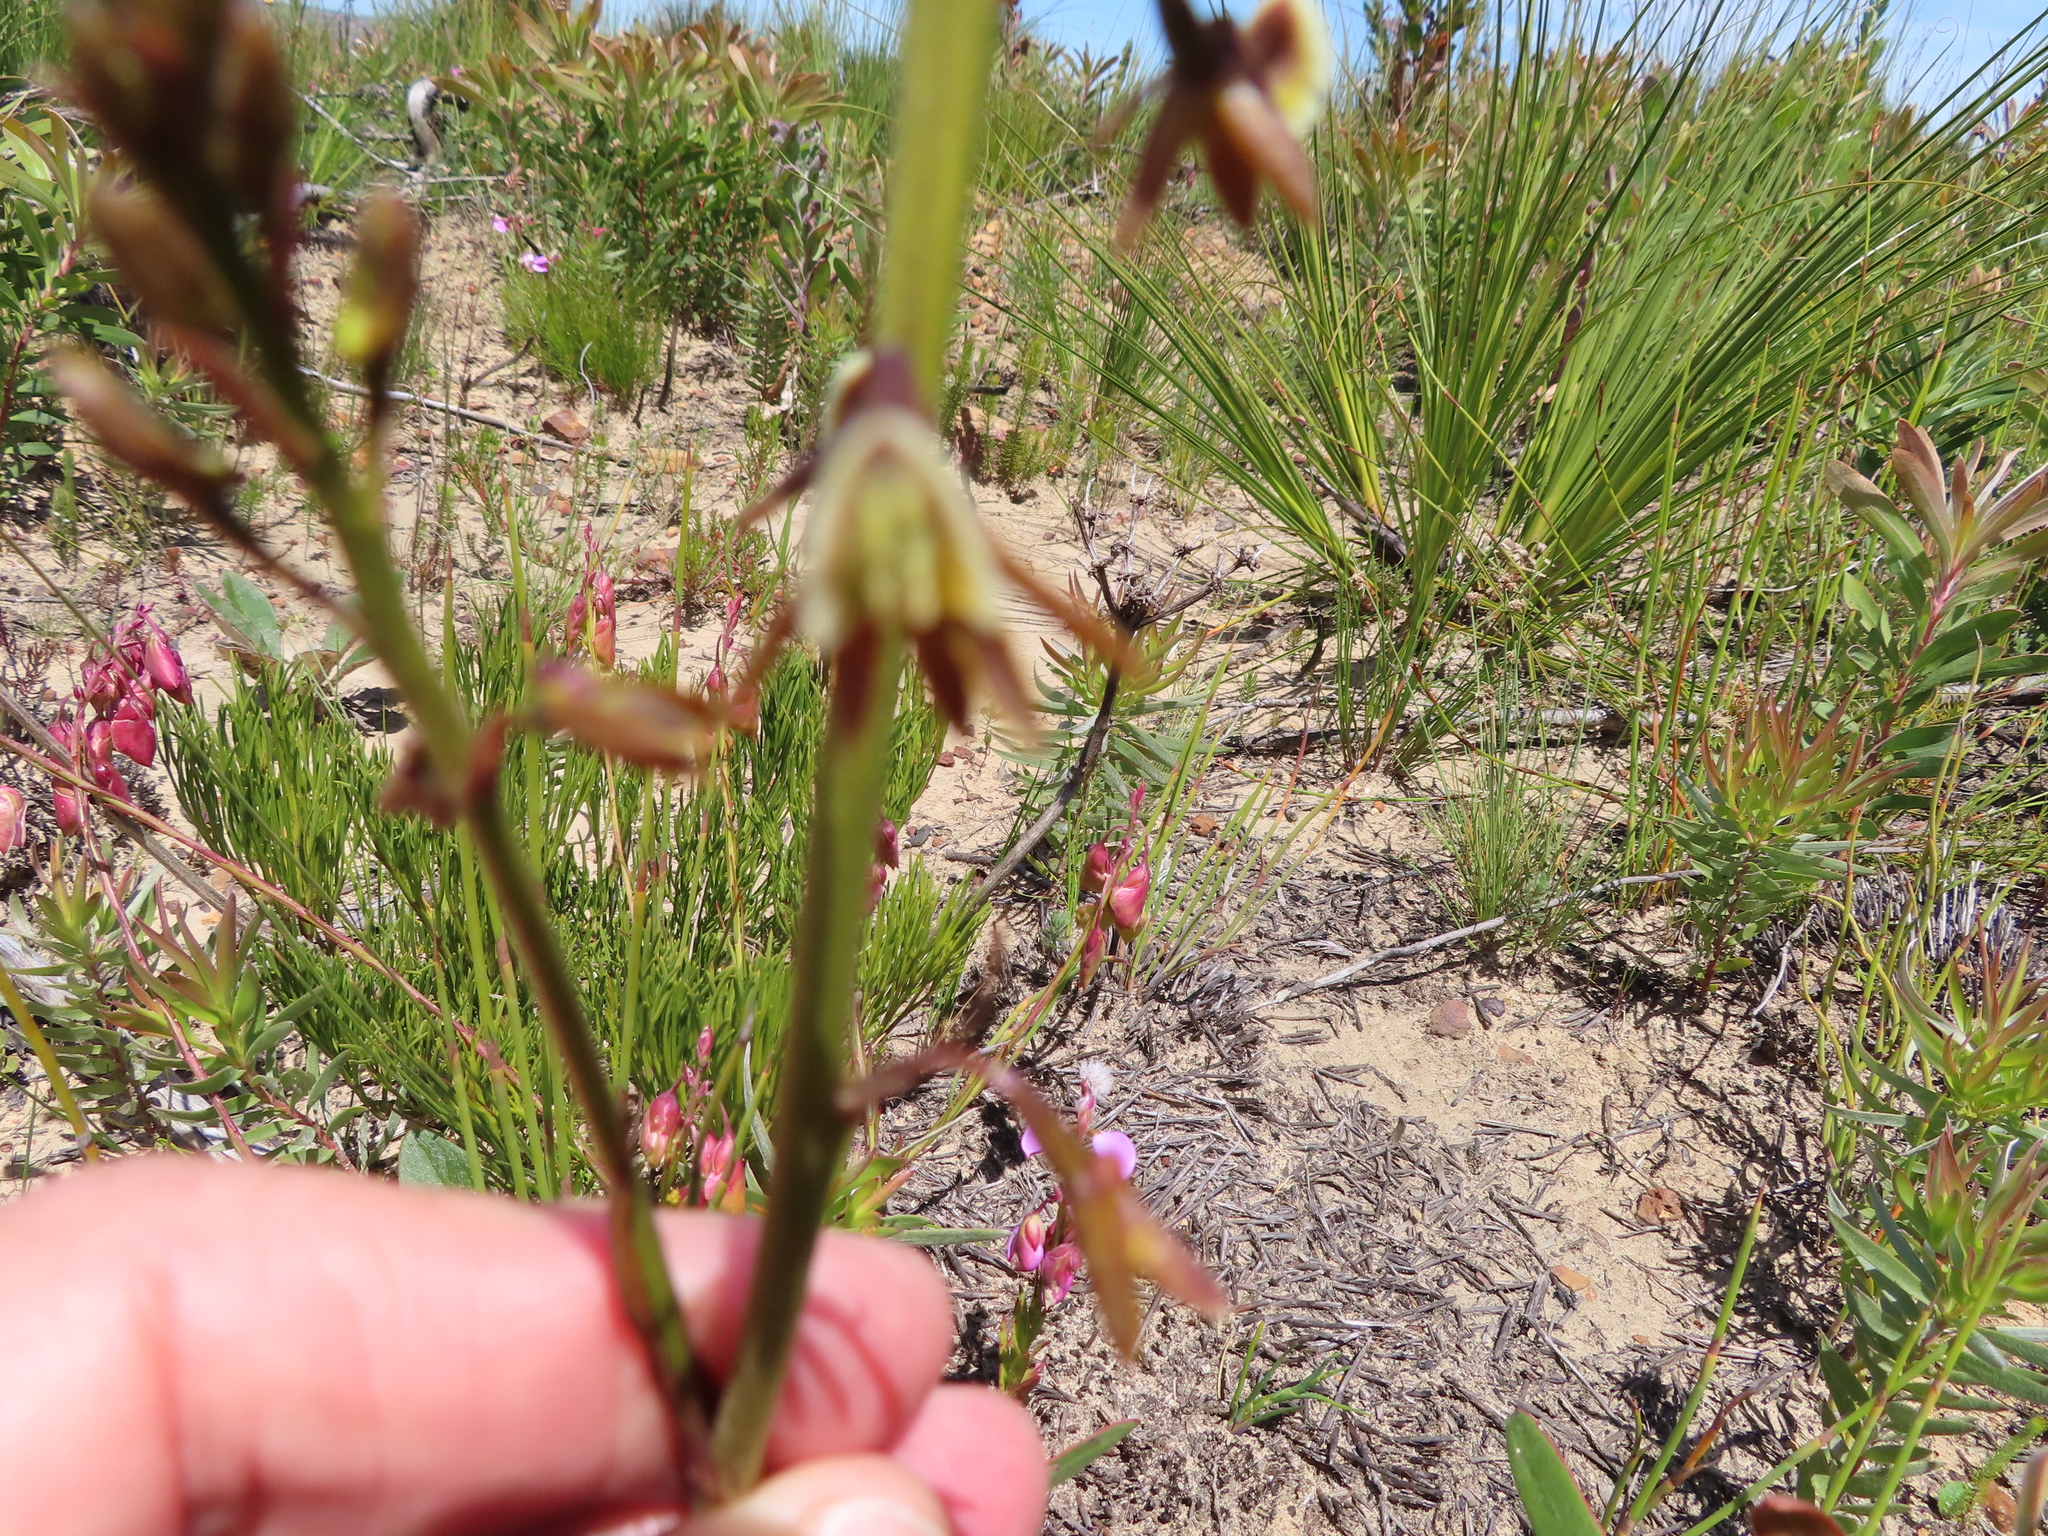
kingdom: Plantae
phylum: Tracheophyta
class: Liliopsida
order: Asparagales
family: Orchidaceae
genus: Eulophia
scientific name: Eulophia bolusii
